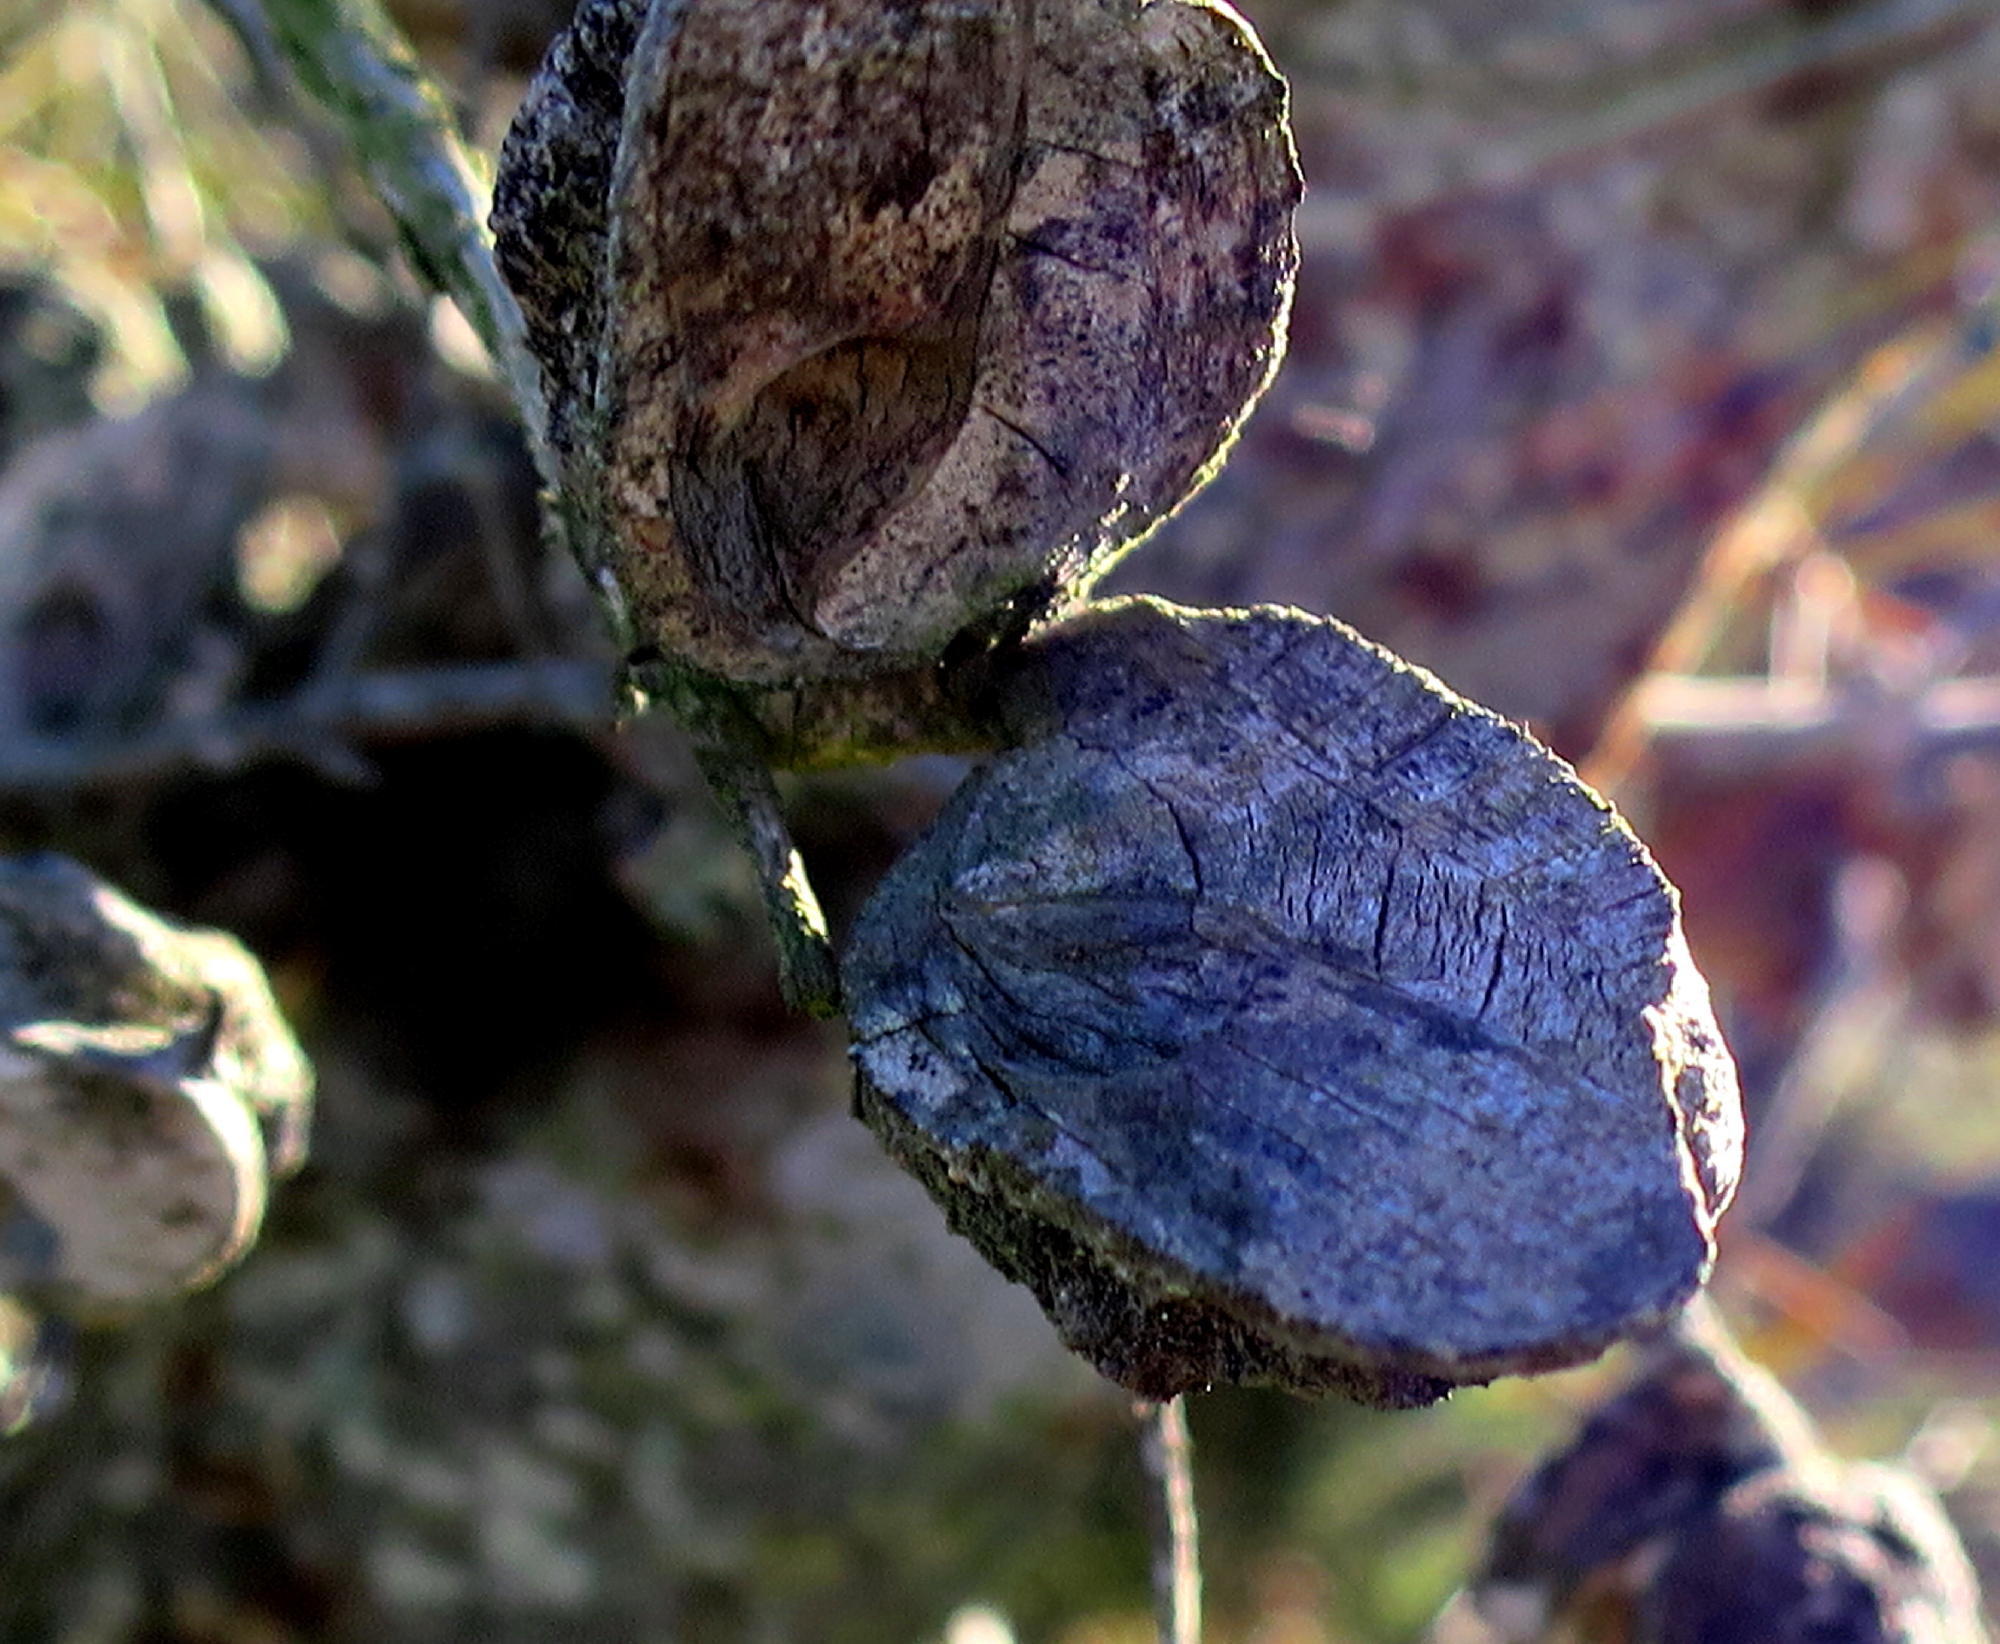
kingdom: Plantae
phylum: Tracheophyta
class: Magnoliopsida
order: Proteales
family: Proteaceae
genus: Hakea
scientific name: Hakea sericea
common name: Needle bush
